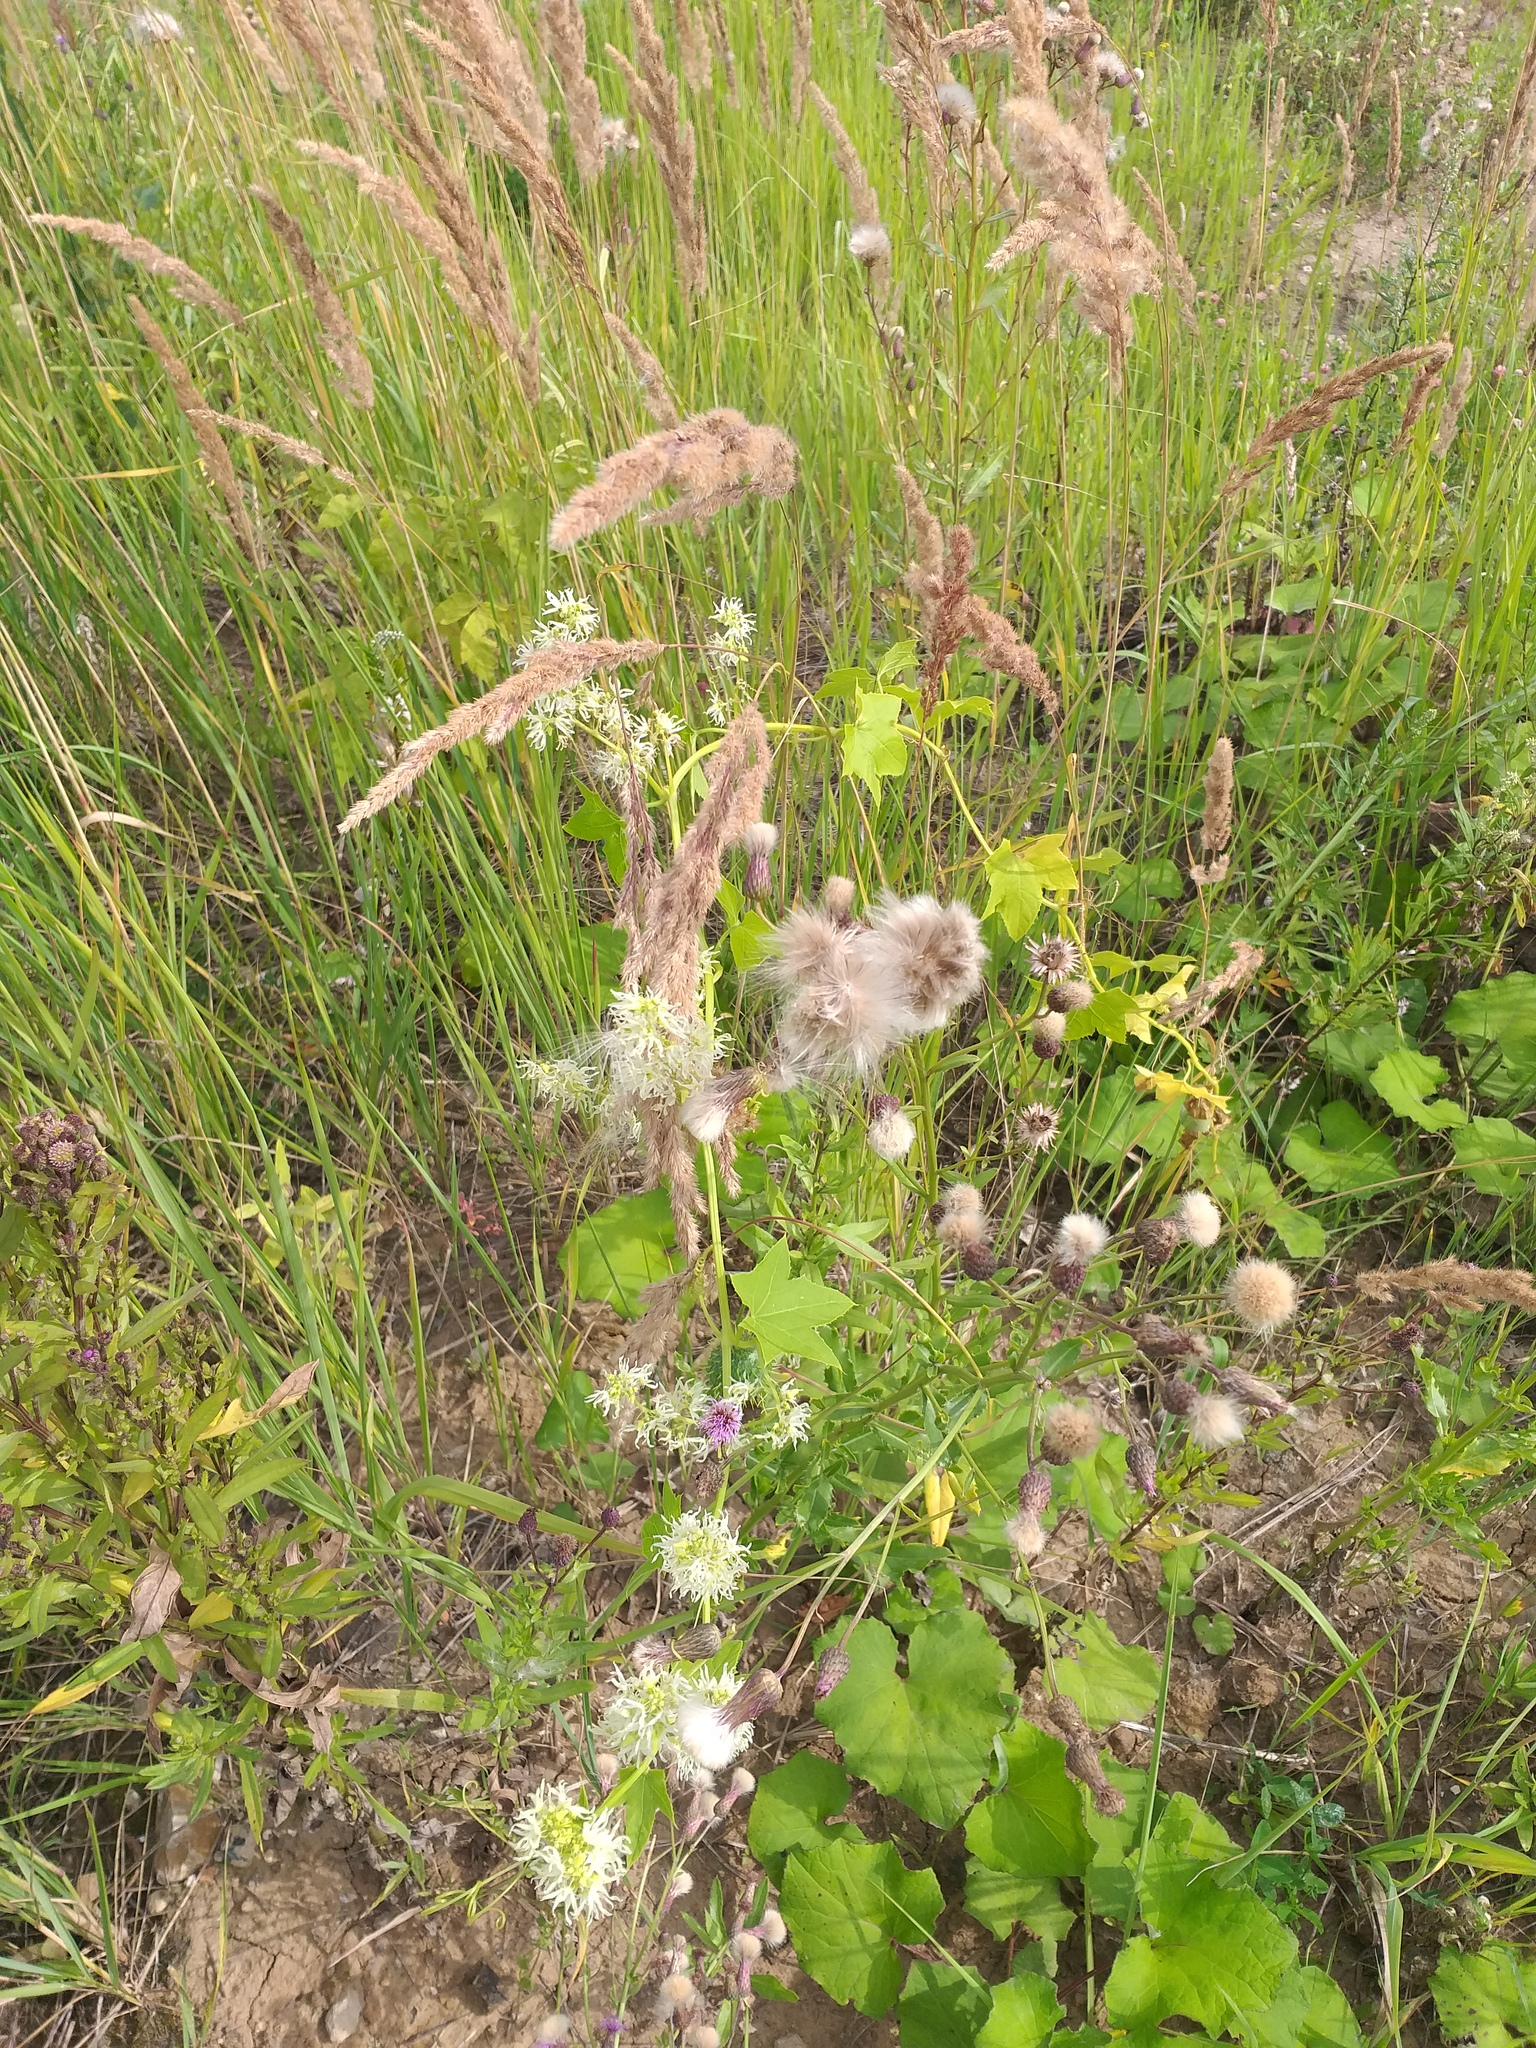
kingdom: Plantae
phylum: Tracheophyta
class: Magnoliopsida
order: Cucurbitales
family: Cucurbitaceae
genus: Echinocystis
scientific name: Echinocystis lobata
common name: Wild cucumber
